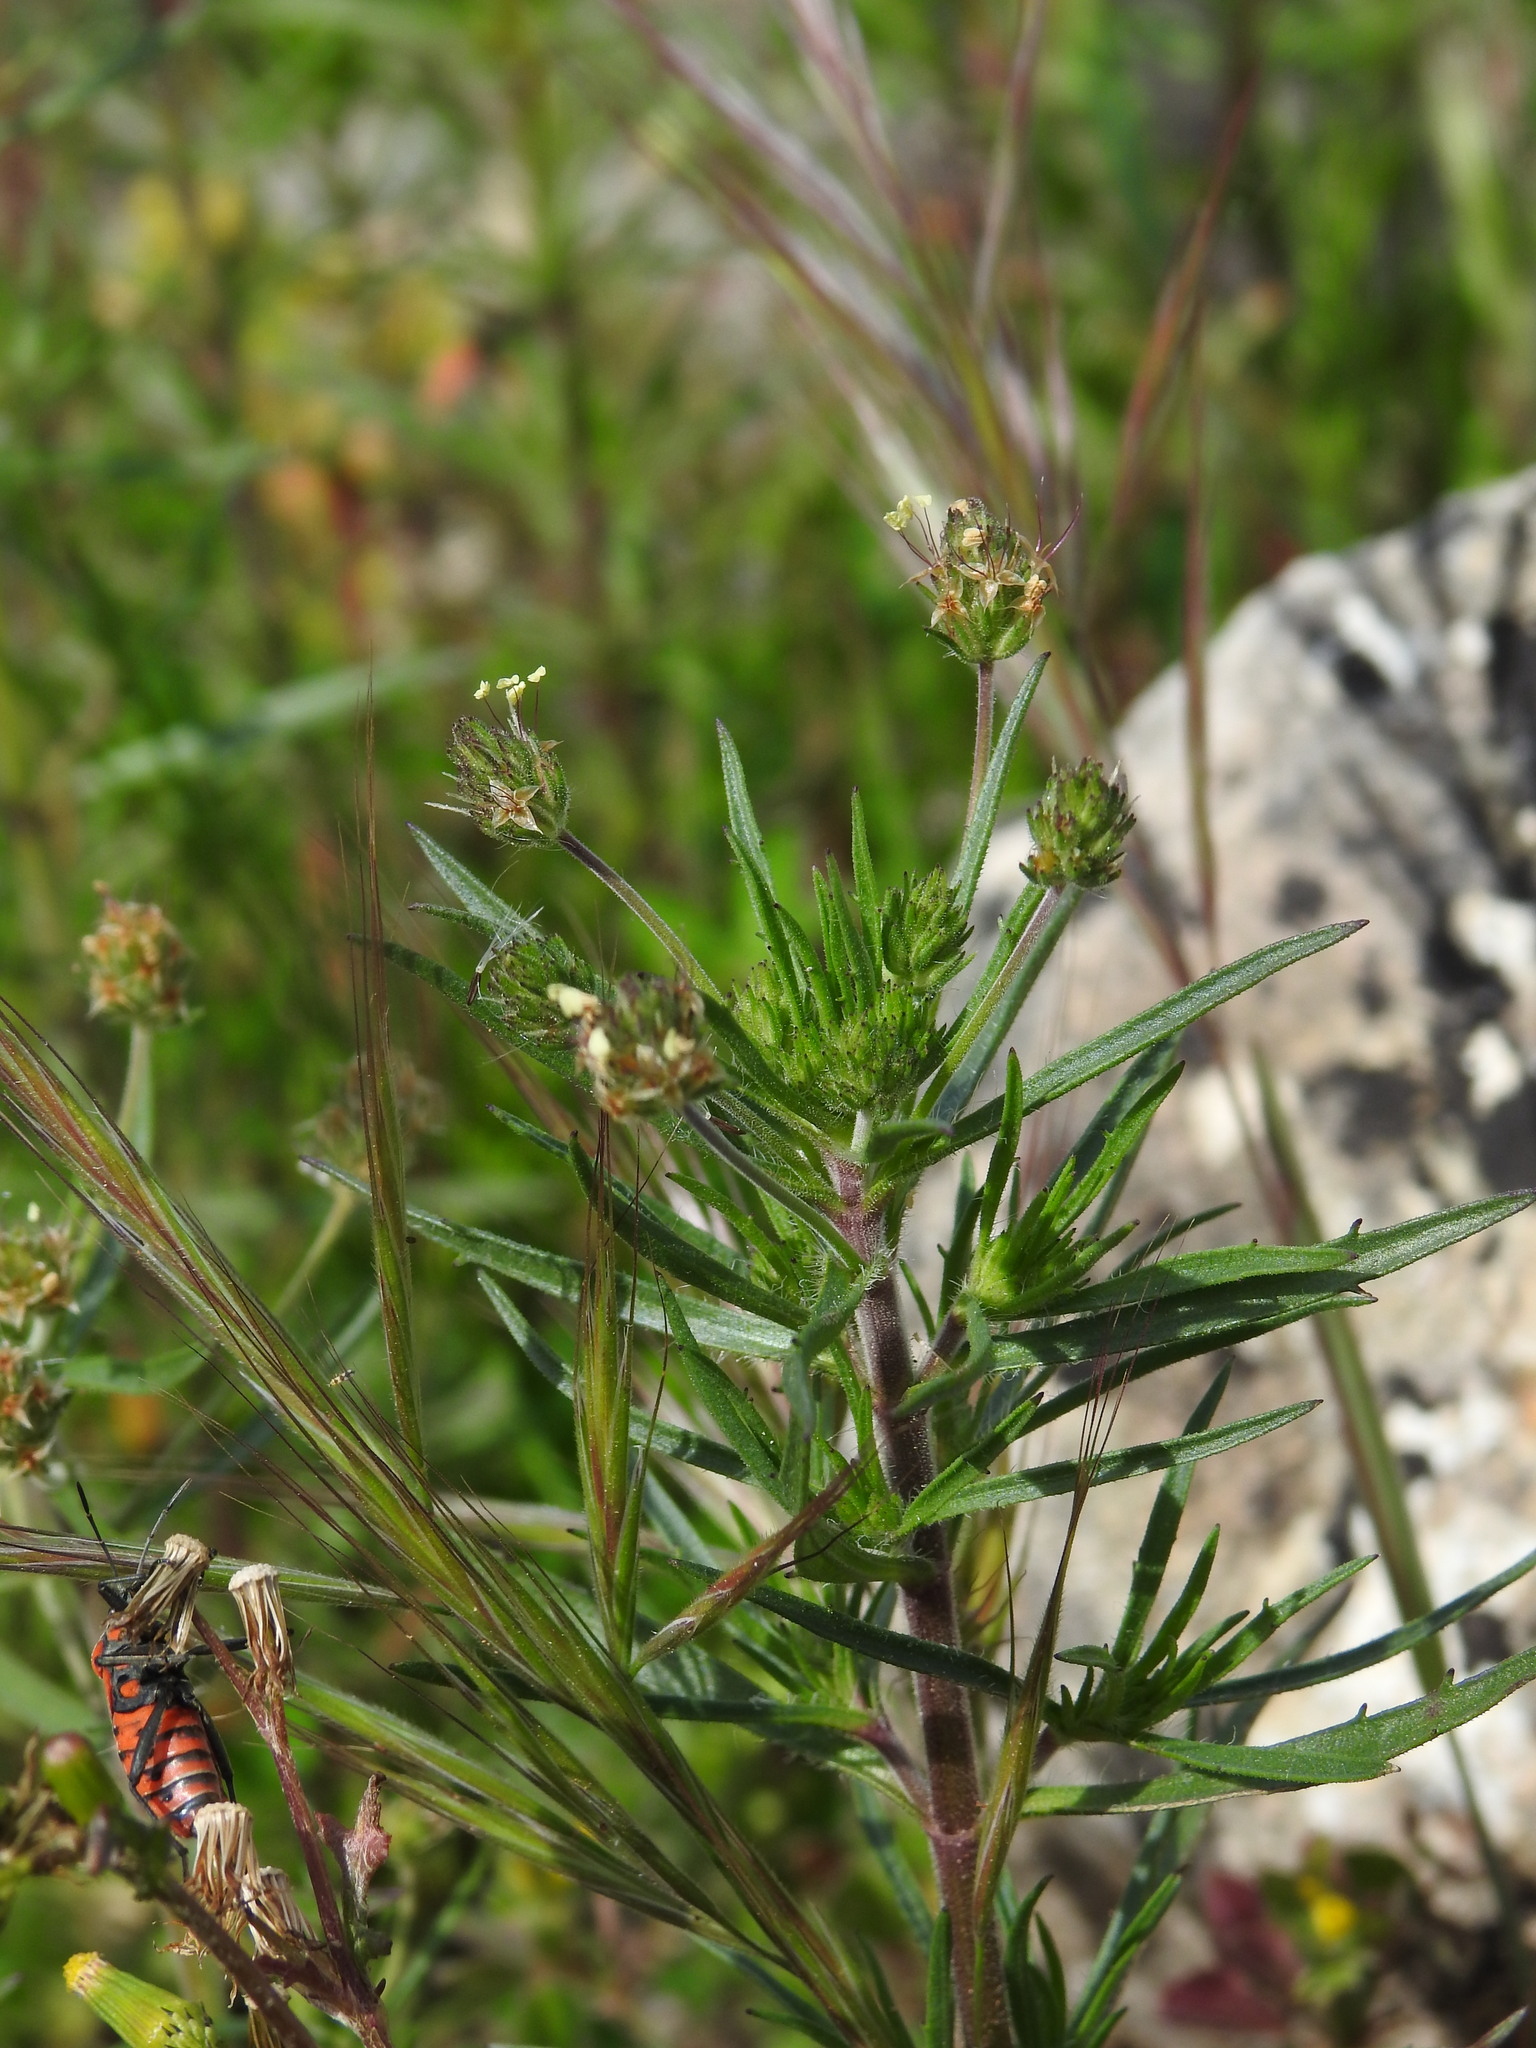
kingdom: Plantae
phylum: Tracheophyta
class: Magnoliopsida
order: Lamiales
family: Plantaginaceae
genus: Plantago
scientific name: Plantago afra
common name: Glandular plantain
